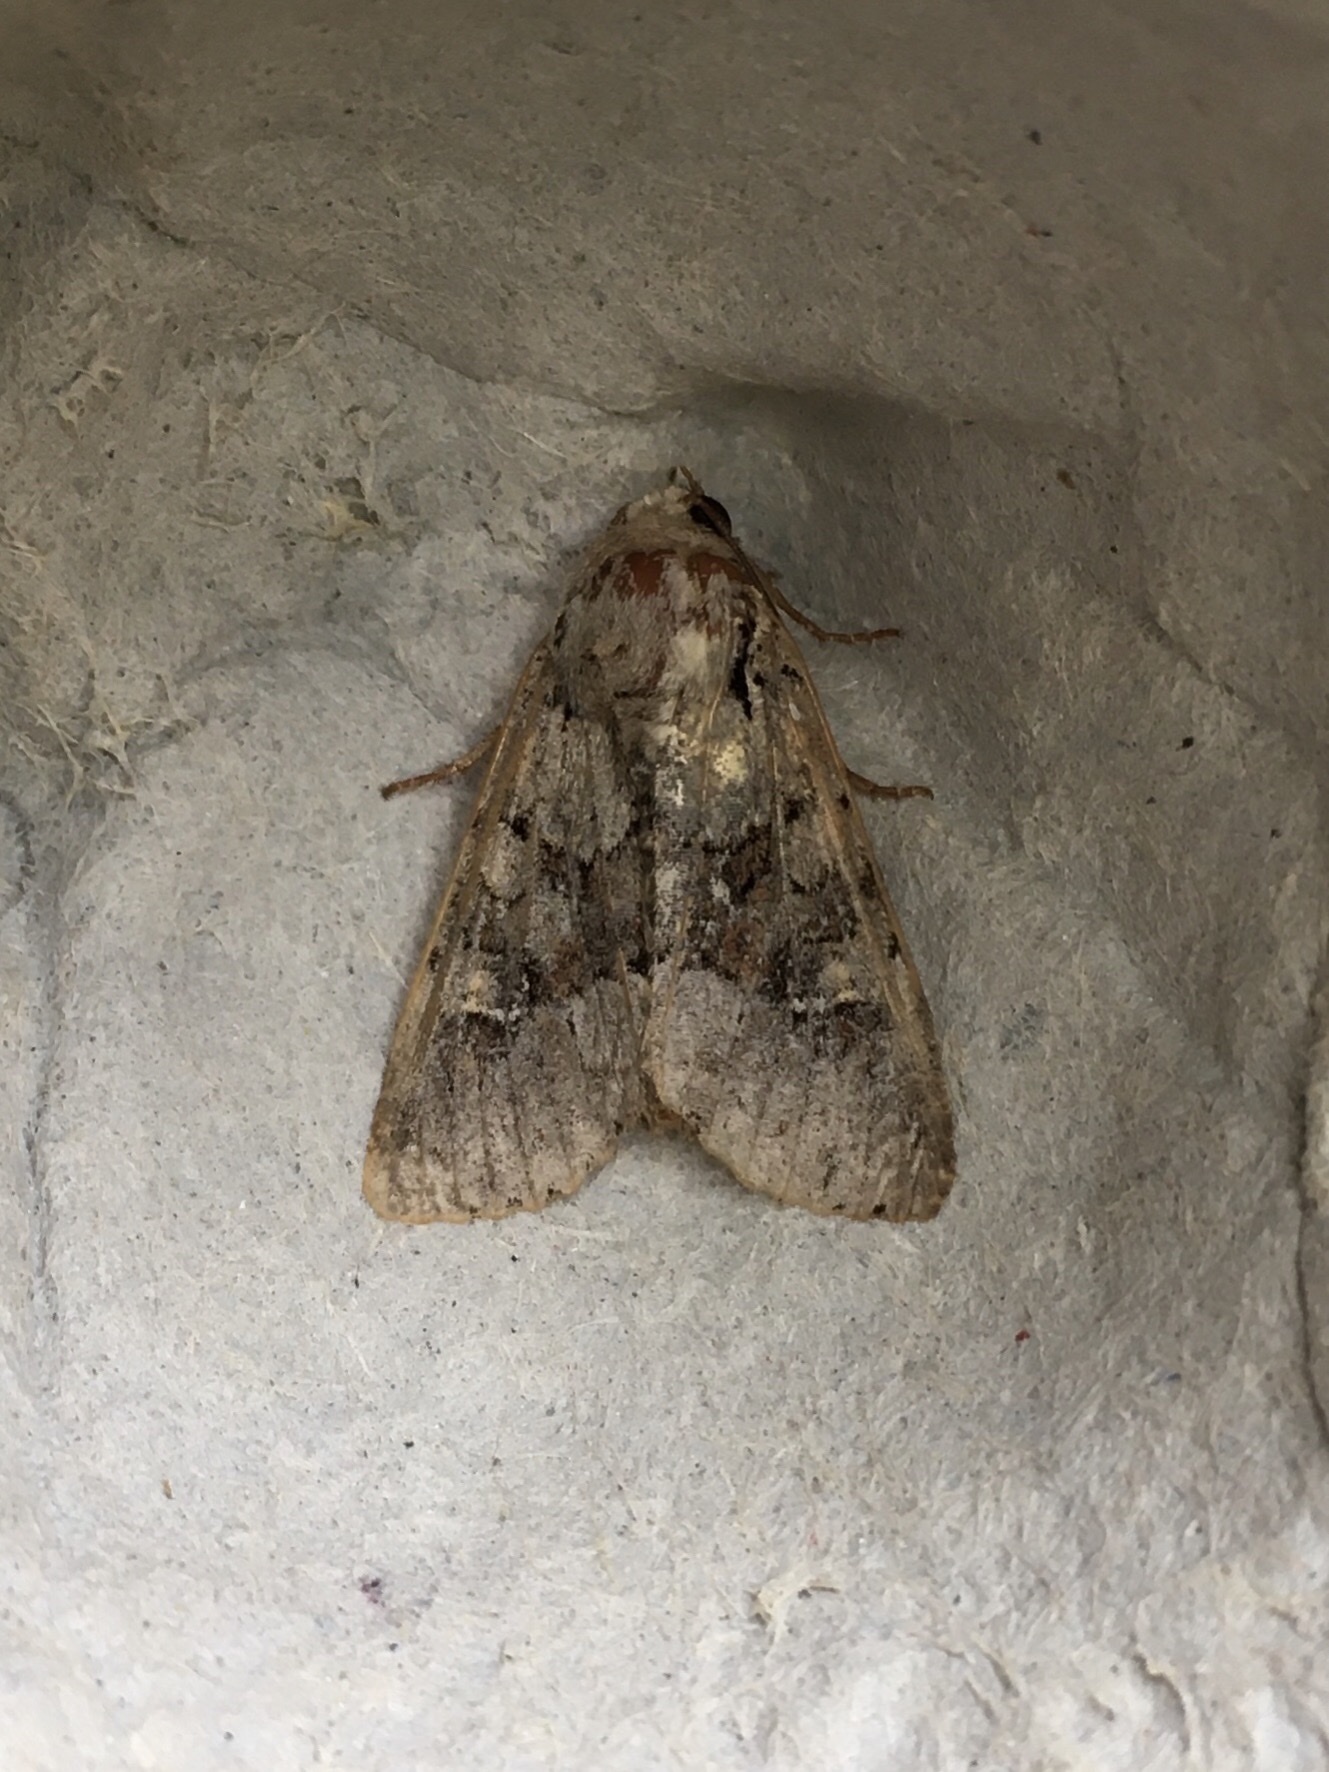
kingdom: Animalia
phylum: Arthropoda
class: Insecta
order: Lepidoptera
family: Noctuidae
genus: Apamea
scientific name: Apamea sordens
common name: Rustic shoulder-knot
